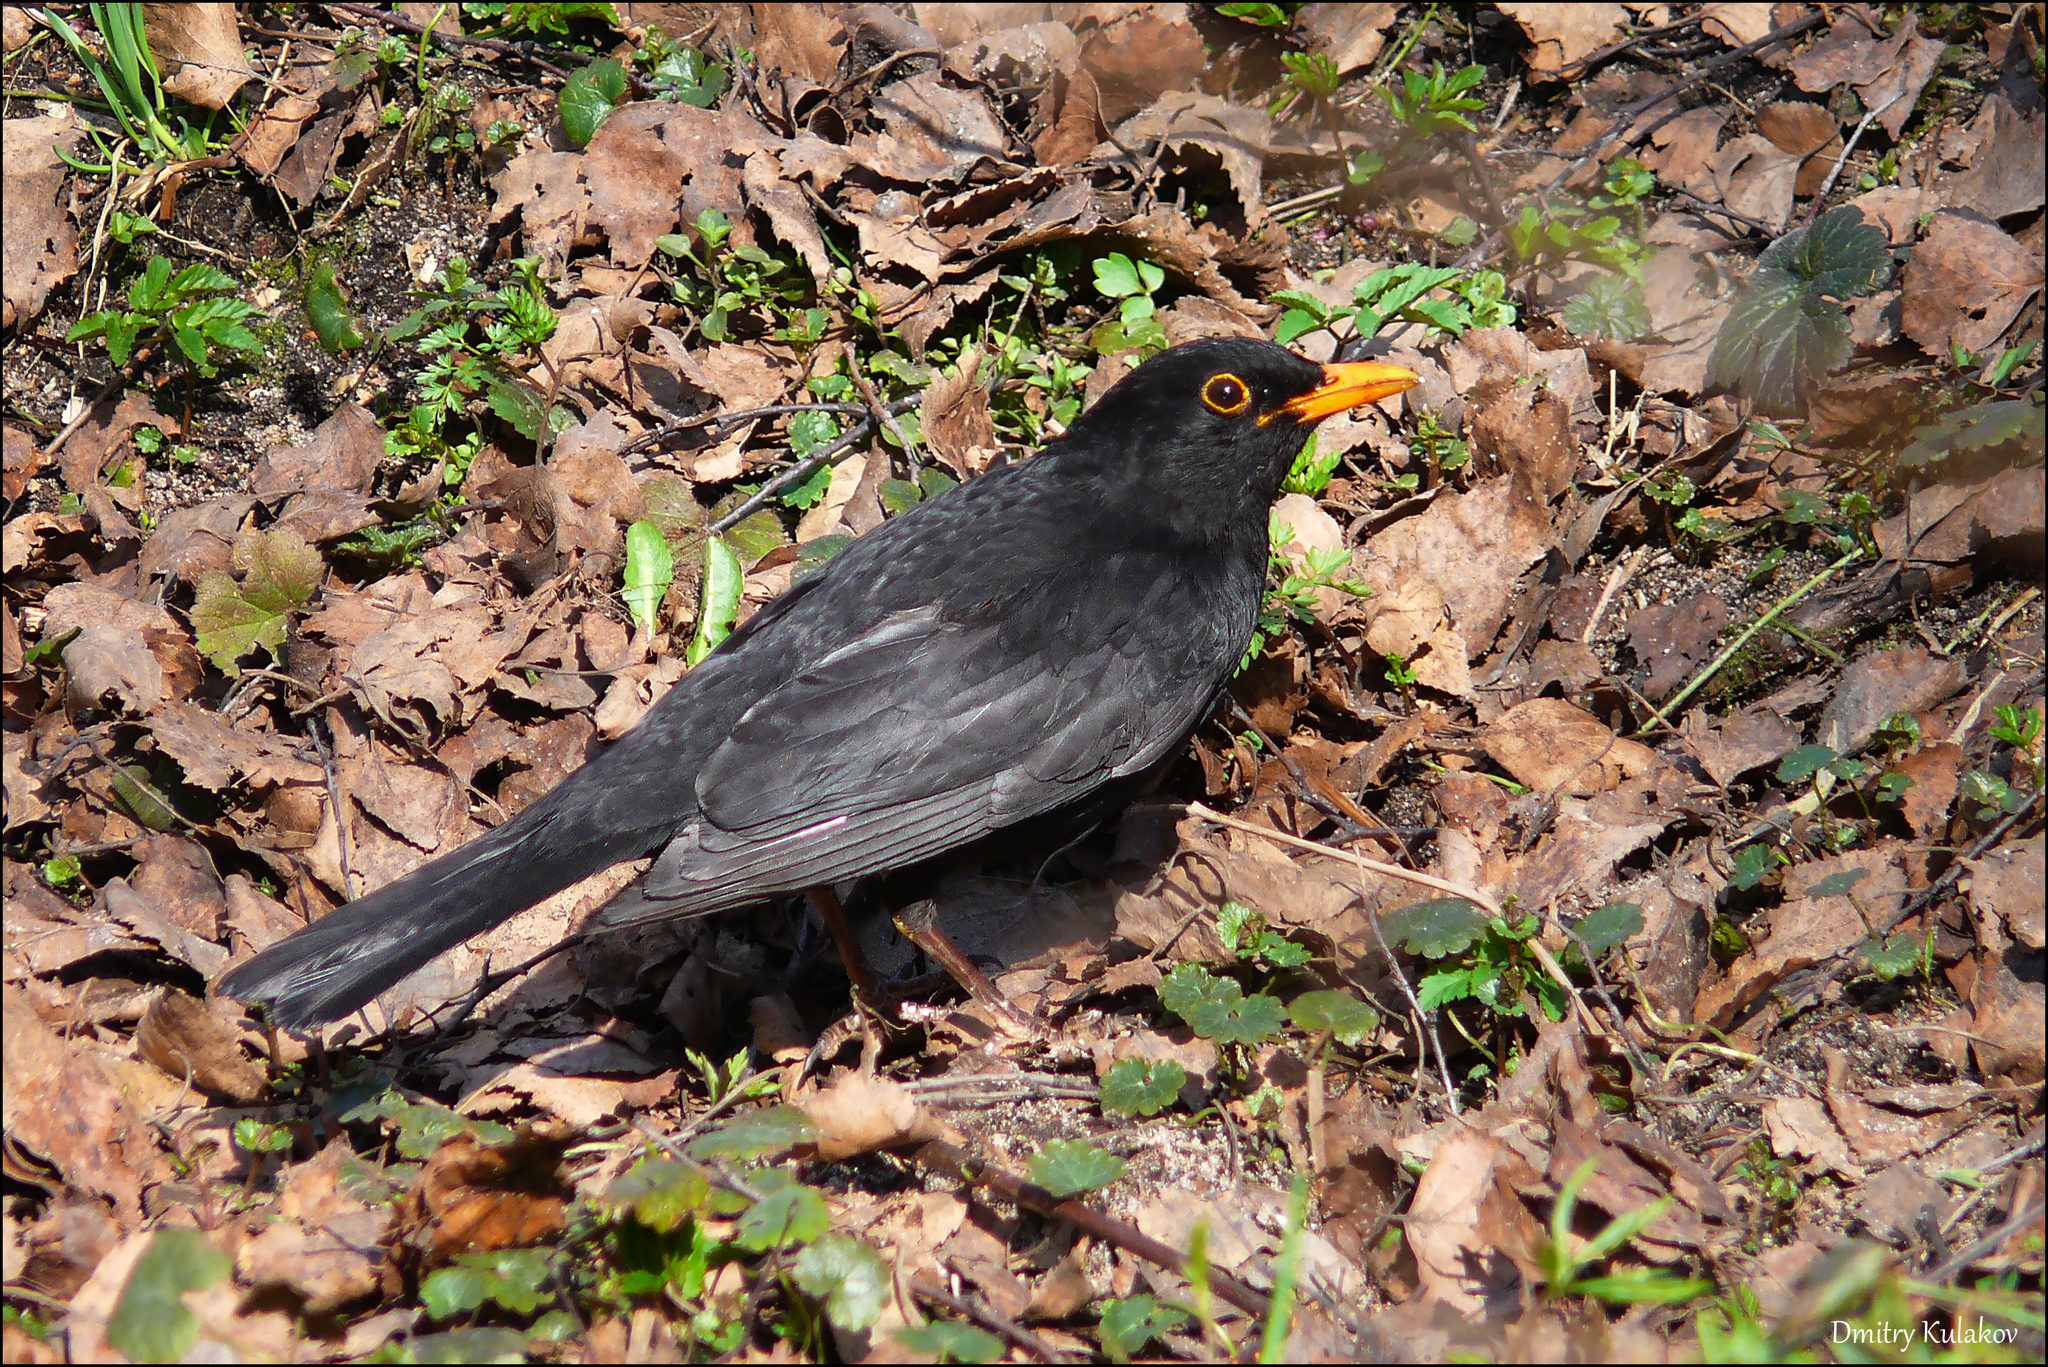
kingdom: Animalia
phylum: Chordata
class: Aves
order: Passeriformes
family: Turdidae
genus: Turdus
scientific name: Turdus merula
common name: Common blackbird
